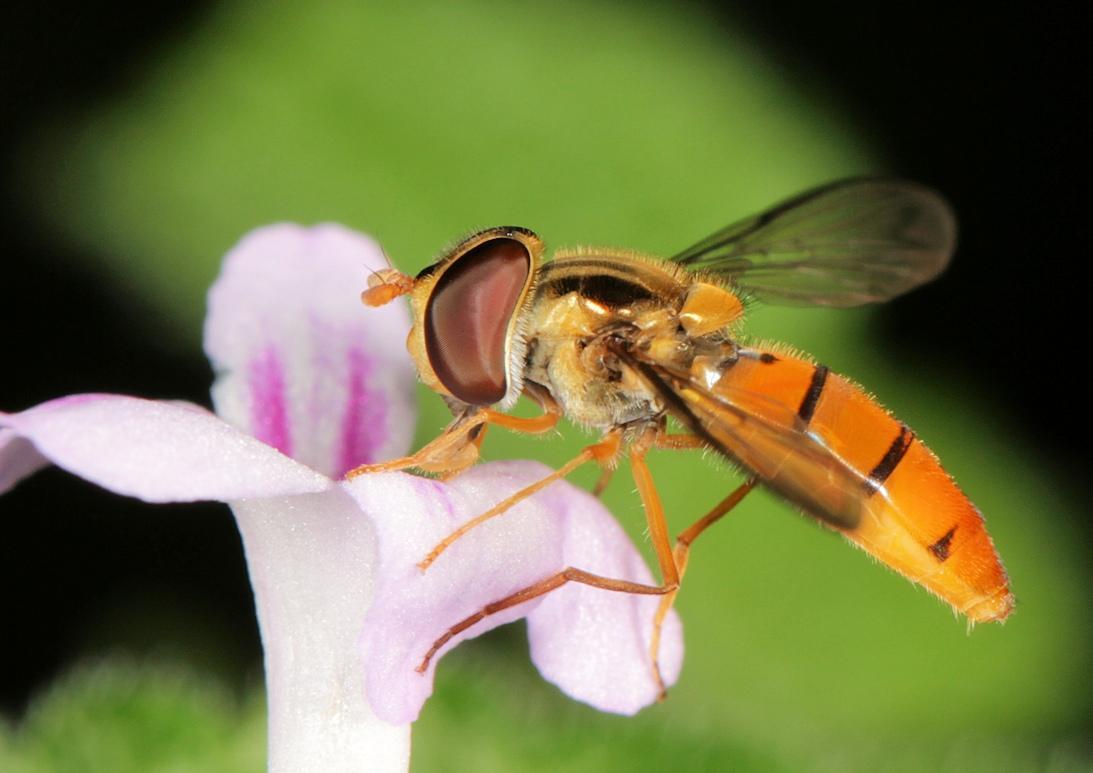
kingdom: Animalia
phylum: Arthropoda
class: Insecta
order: Diptera
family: Syrphidae
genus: Episyrphus
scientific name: Episyrphus trisectus
